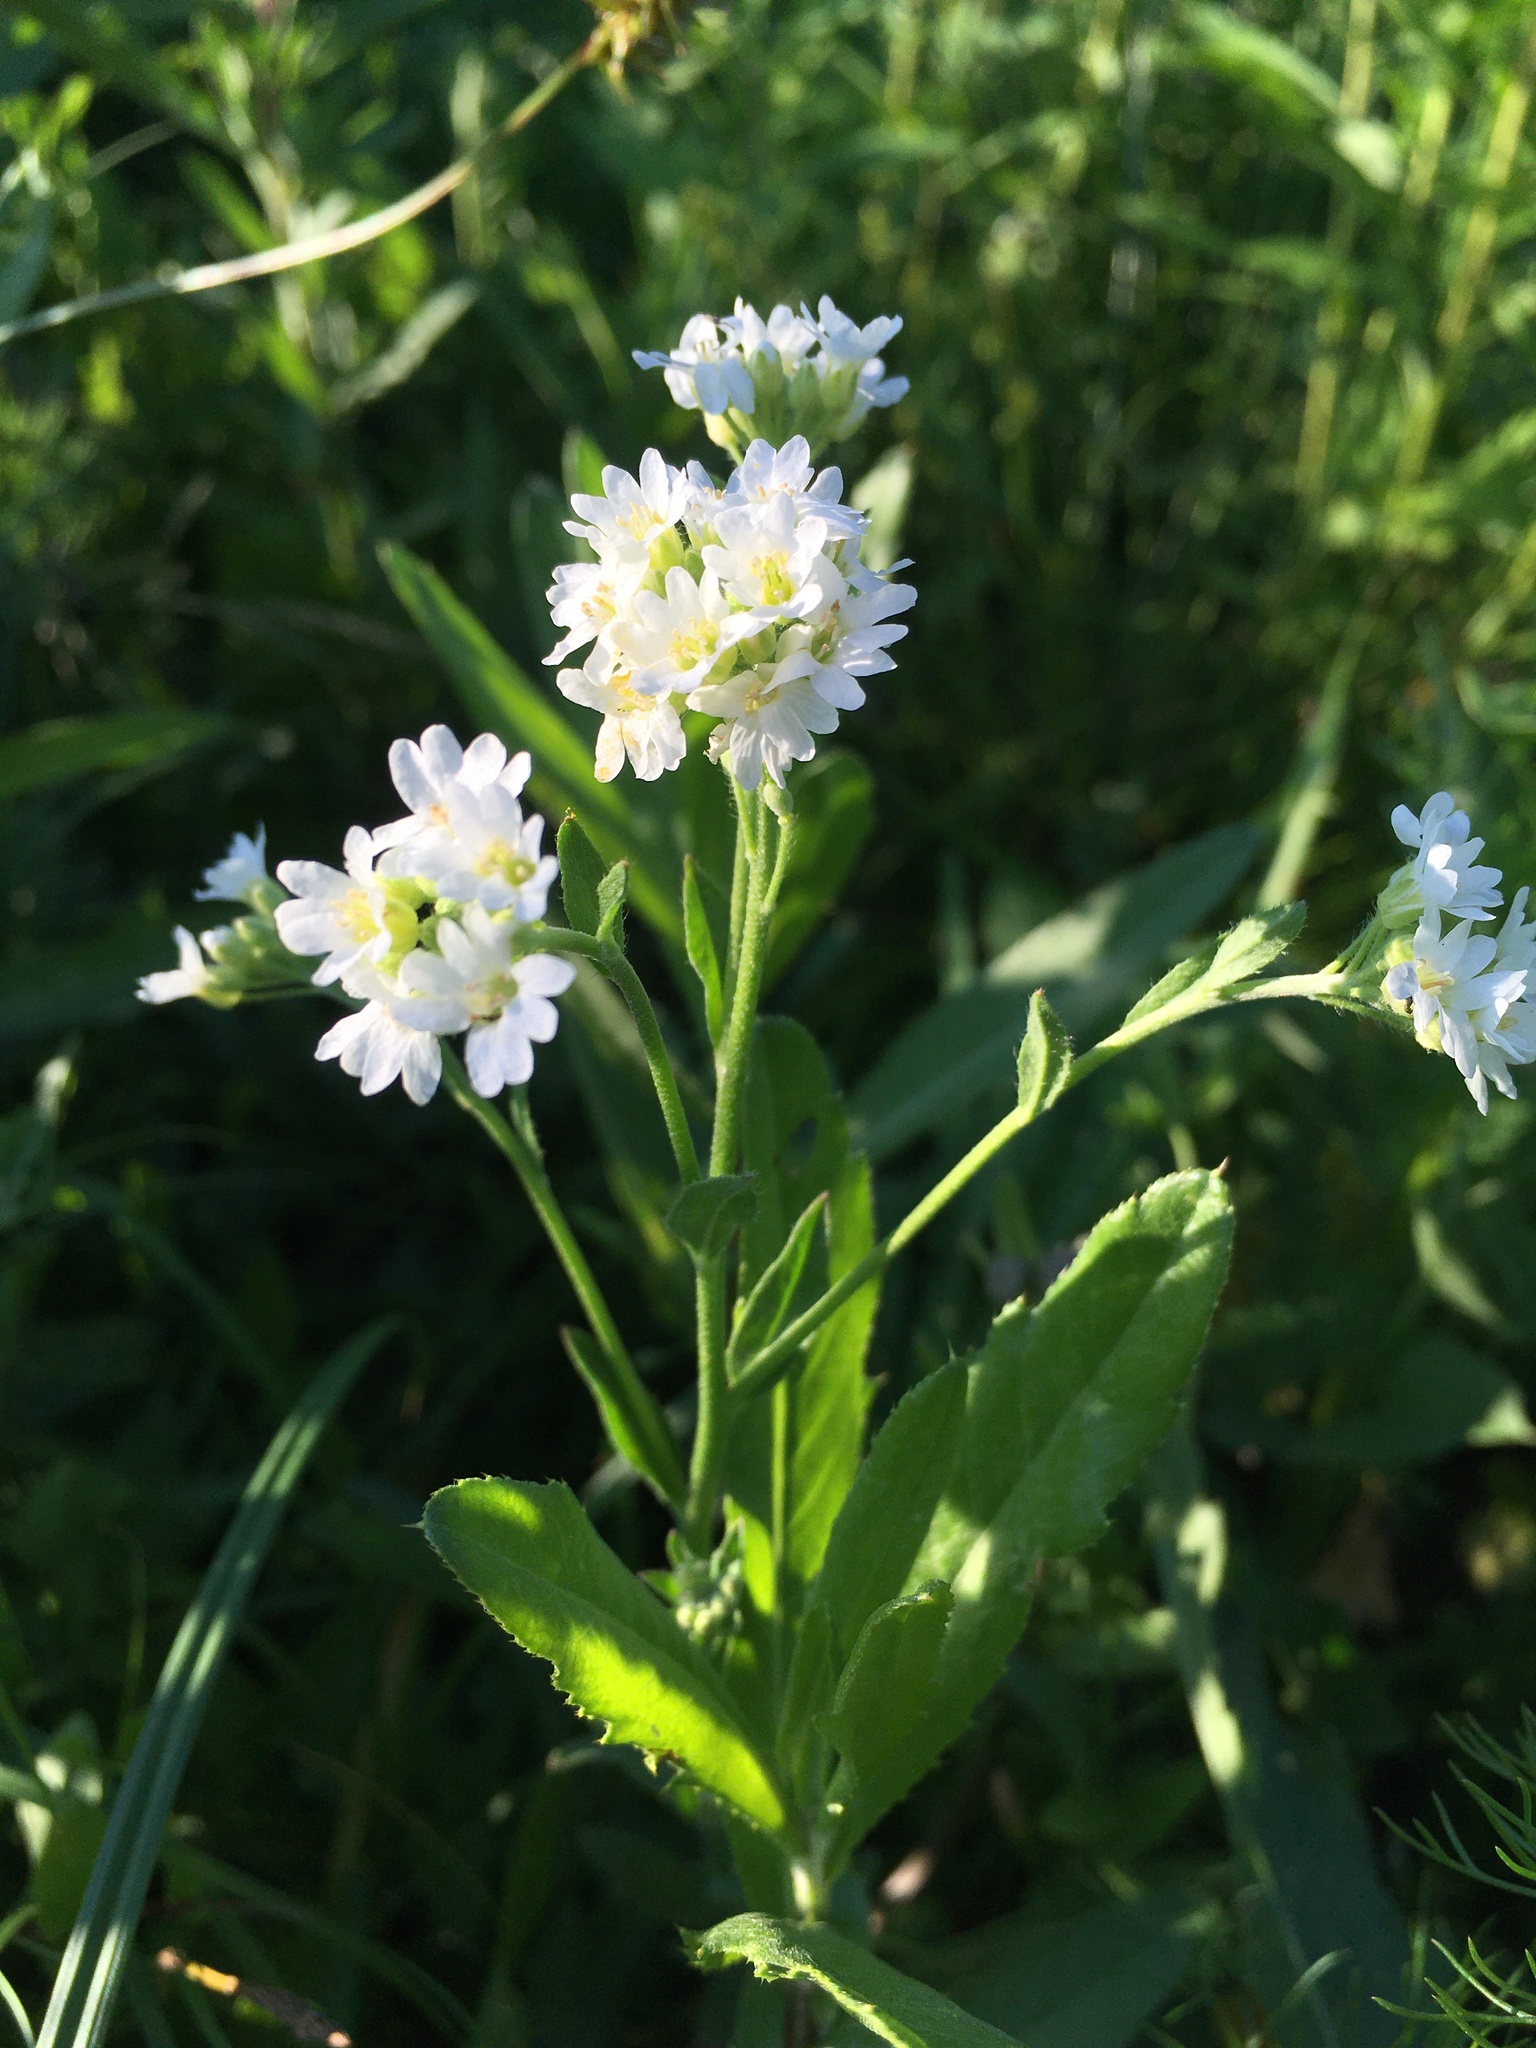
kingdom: Plantae
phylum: Tracheophyta
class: Magnoliopsida
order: Brassicales
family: Brassicaceae
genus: Berteroa
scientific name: Berteroa incana
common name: Hoary alison
